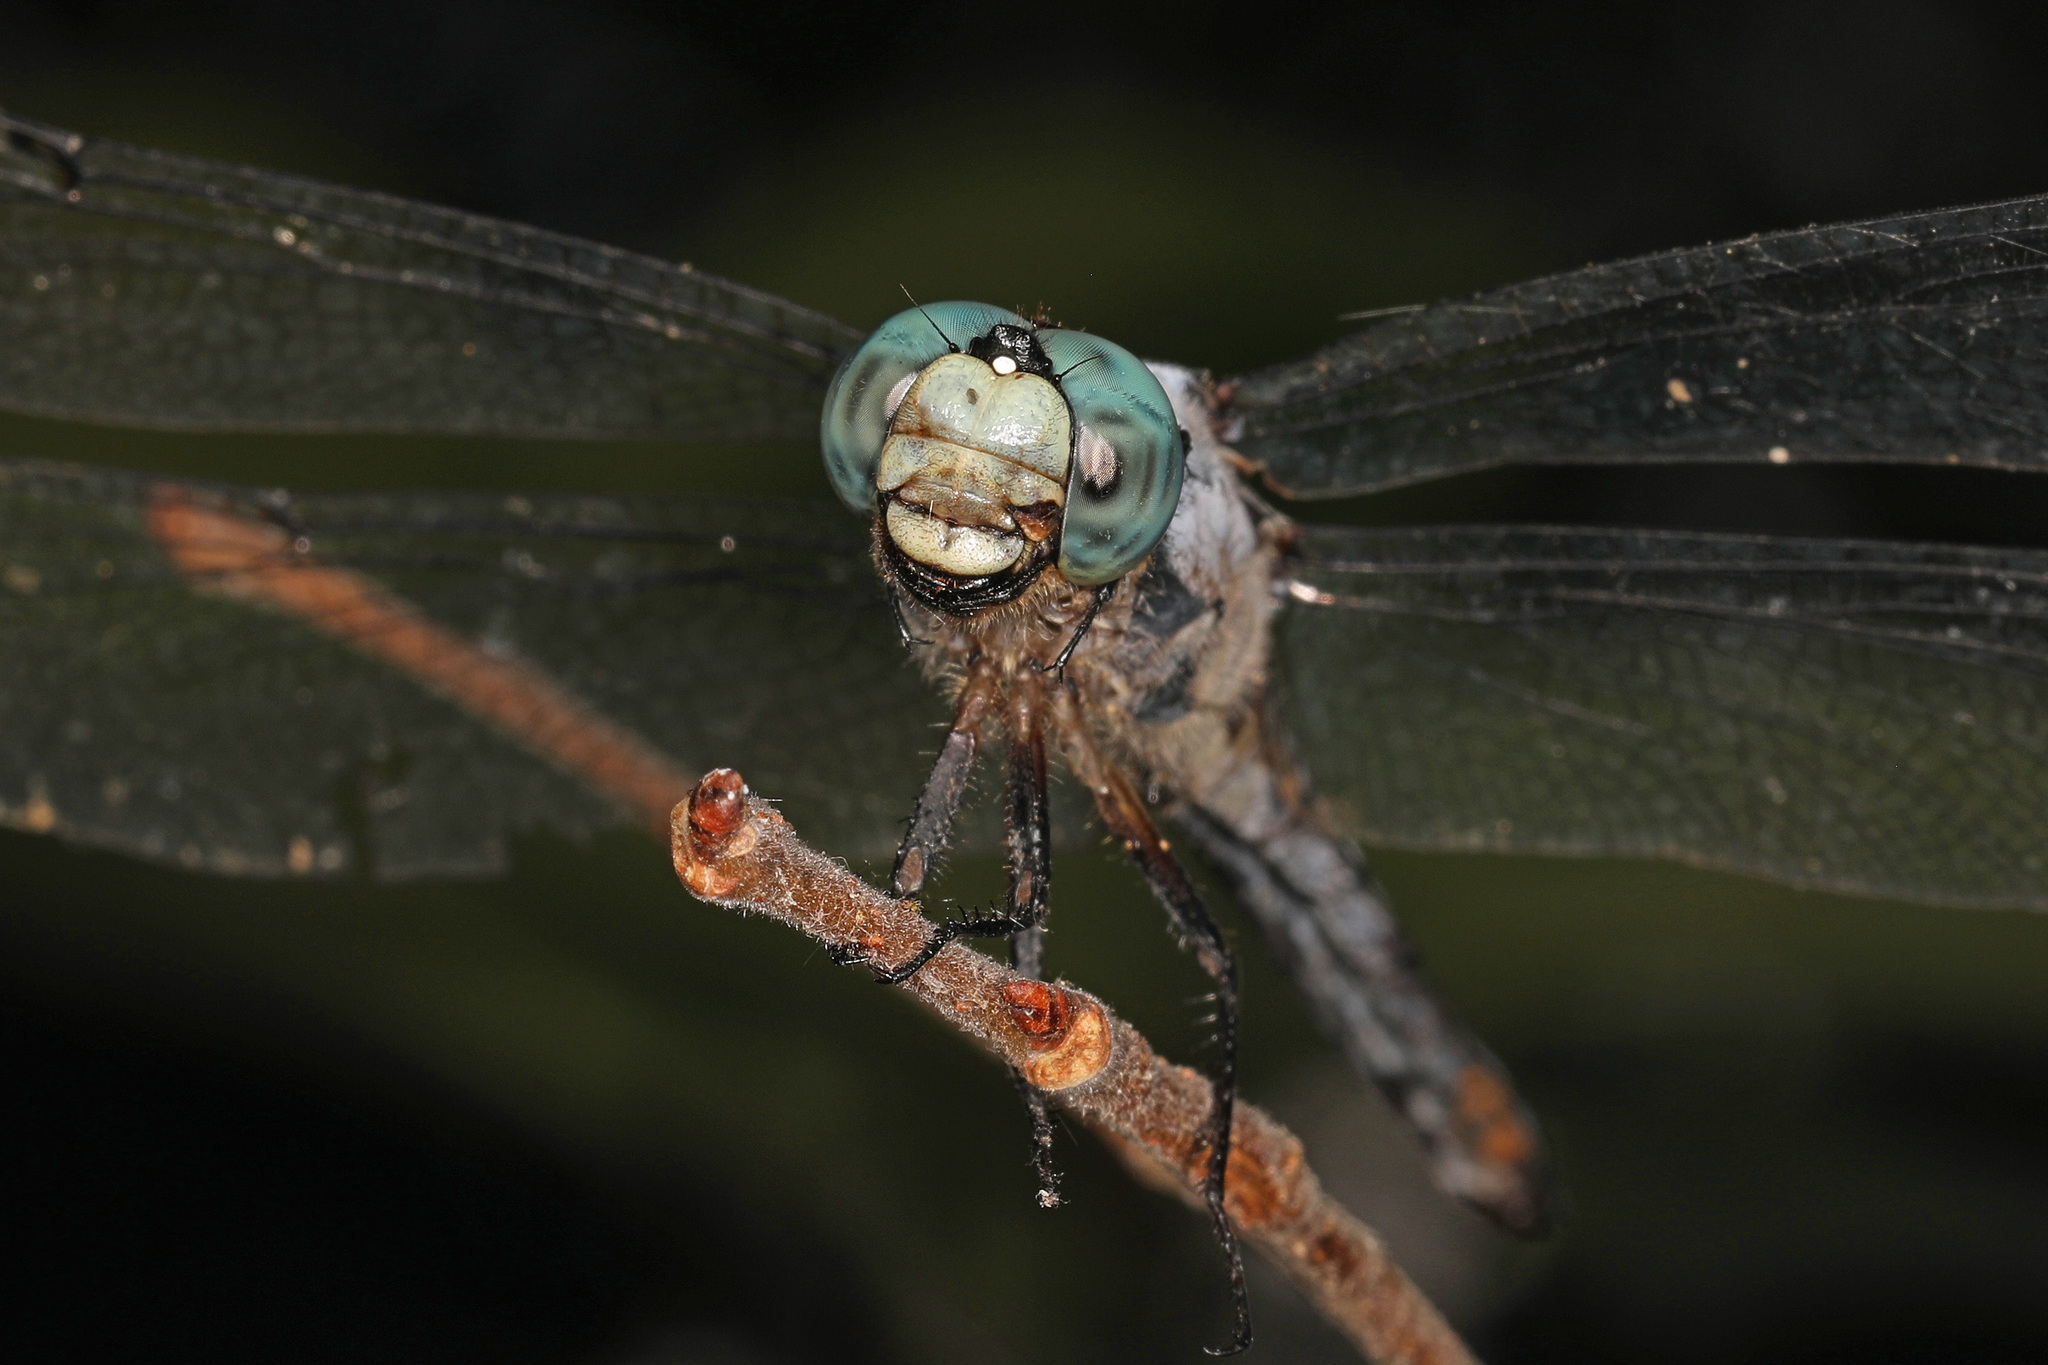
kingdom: Animalia
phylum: Arthropoda
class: Insecta
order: Odonata
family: Libellulidae
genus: Libellula
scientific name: Libellula vibrans
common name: Great blue skimmer
